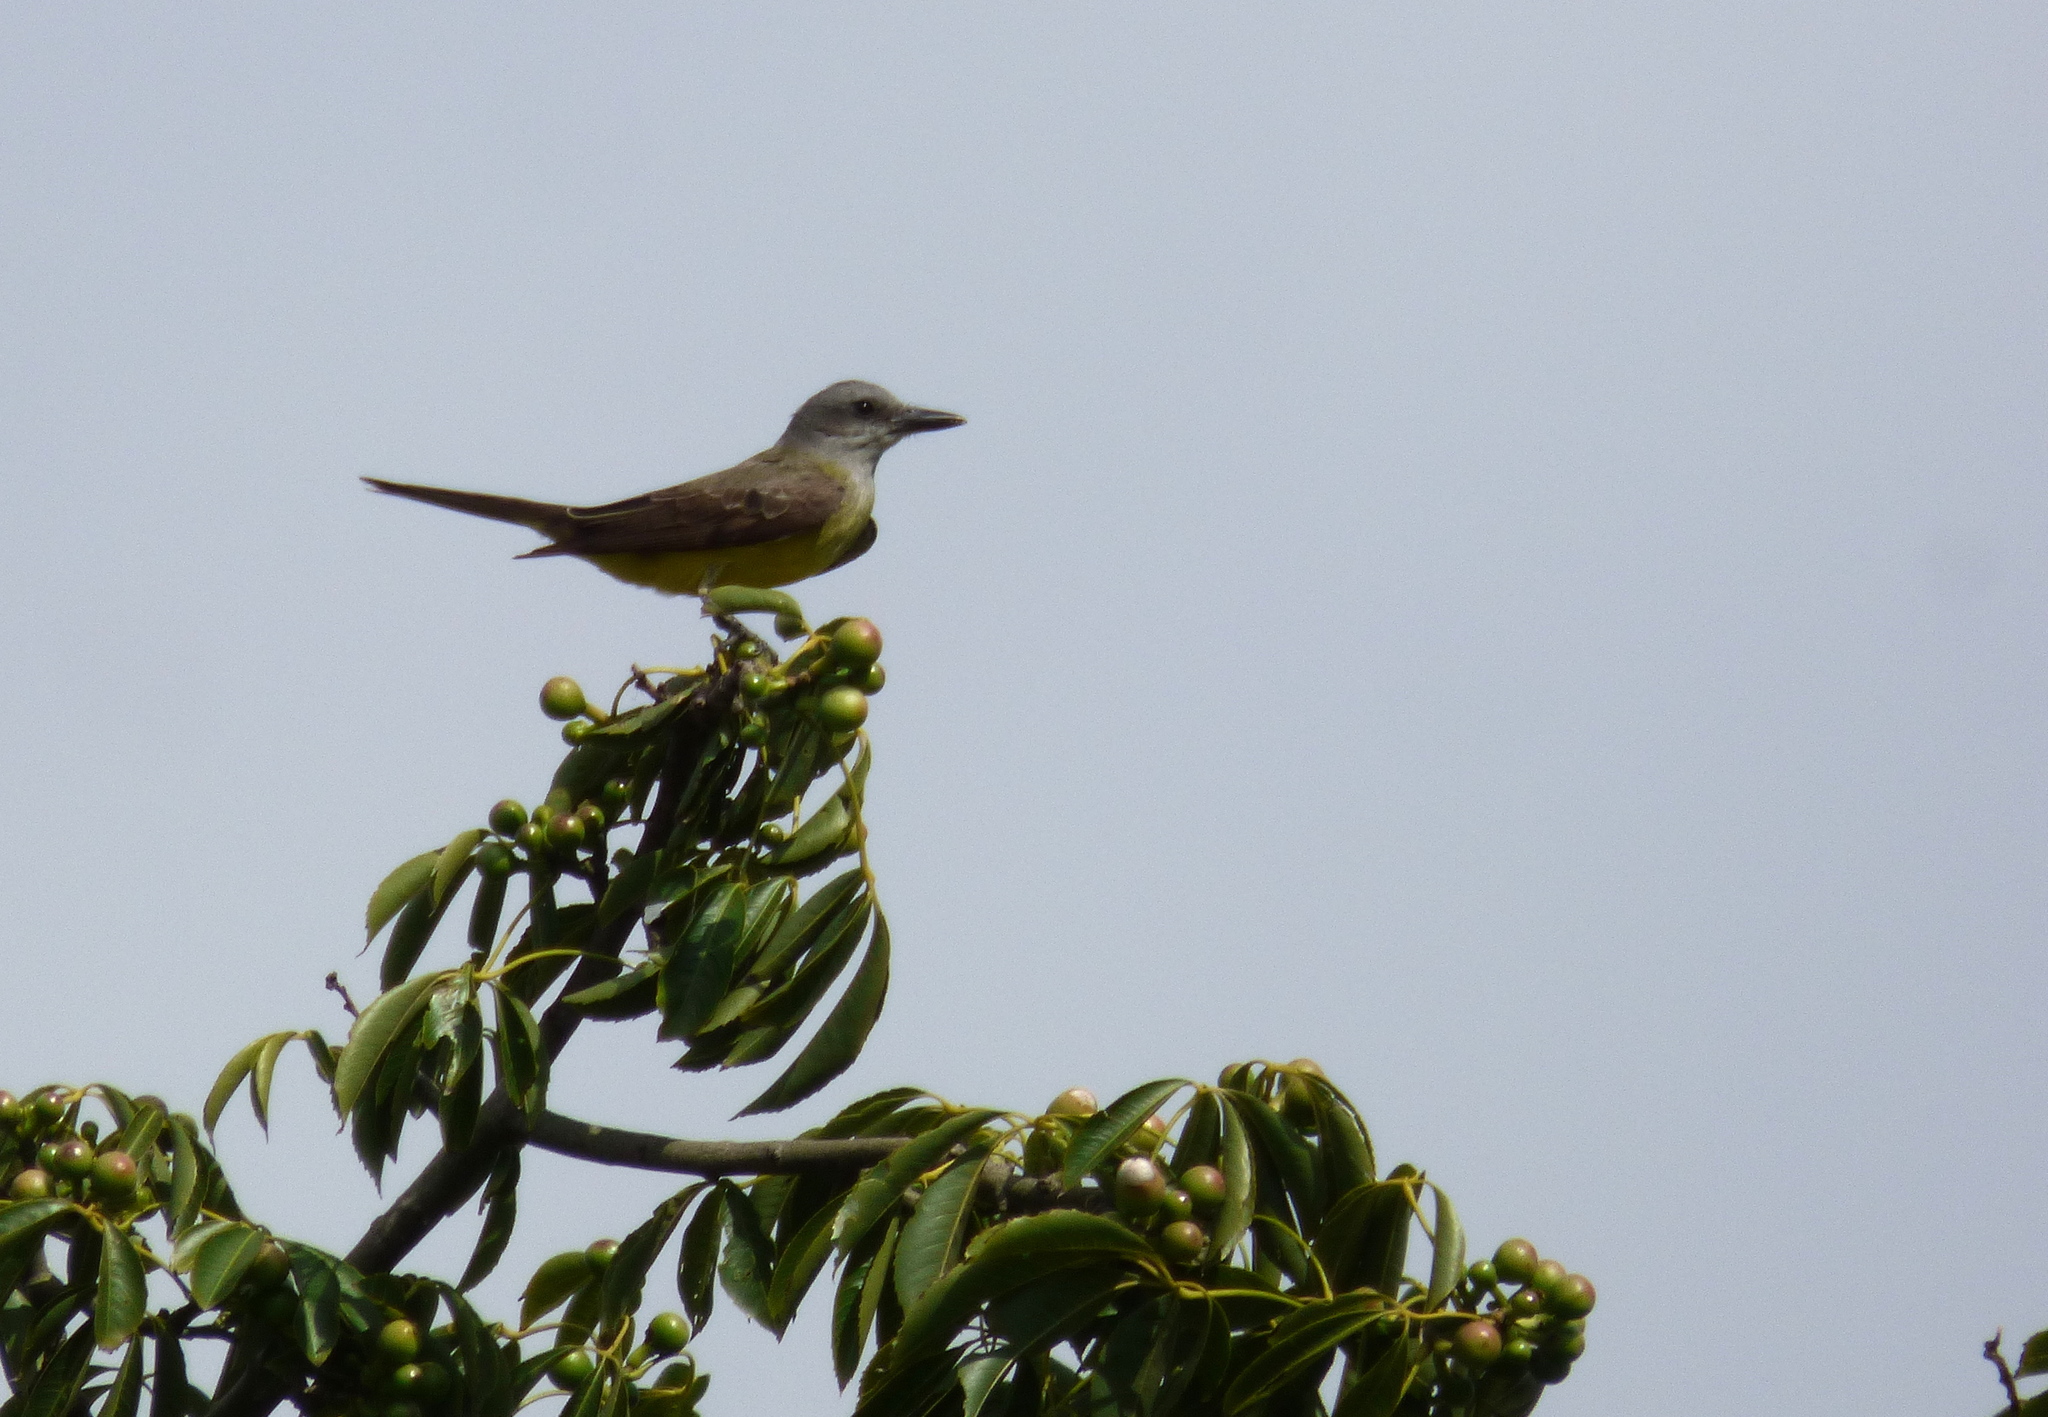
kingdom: Animalia
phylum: Chordata
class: Aves
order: Passeriformes
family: Tyrannidae
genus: Tyrannus
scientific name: Tyrannus melancholicus
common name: Tropical kingbird
